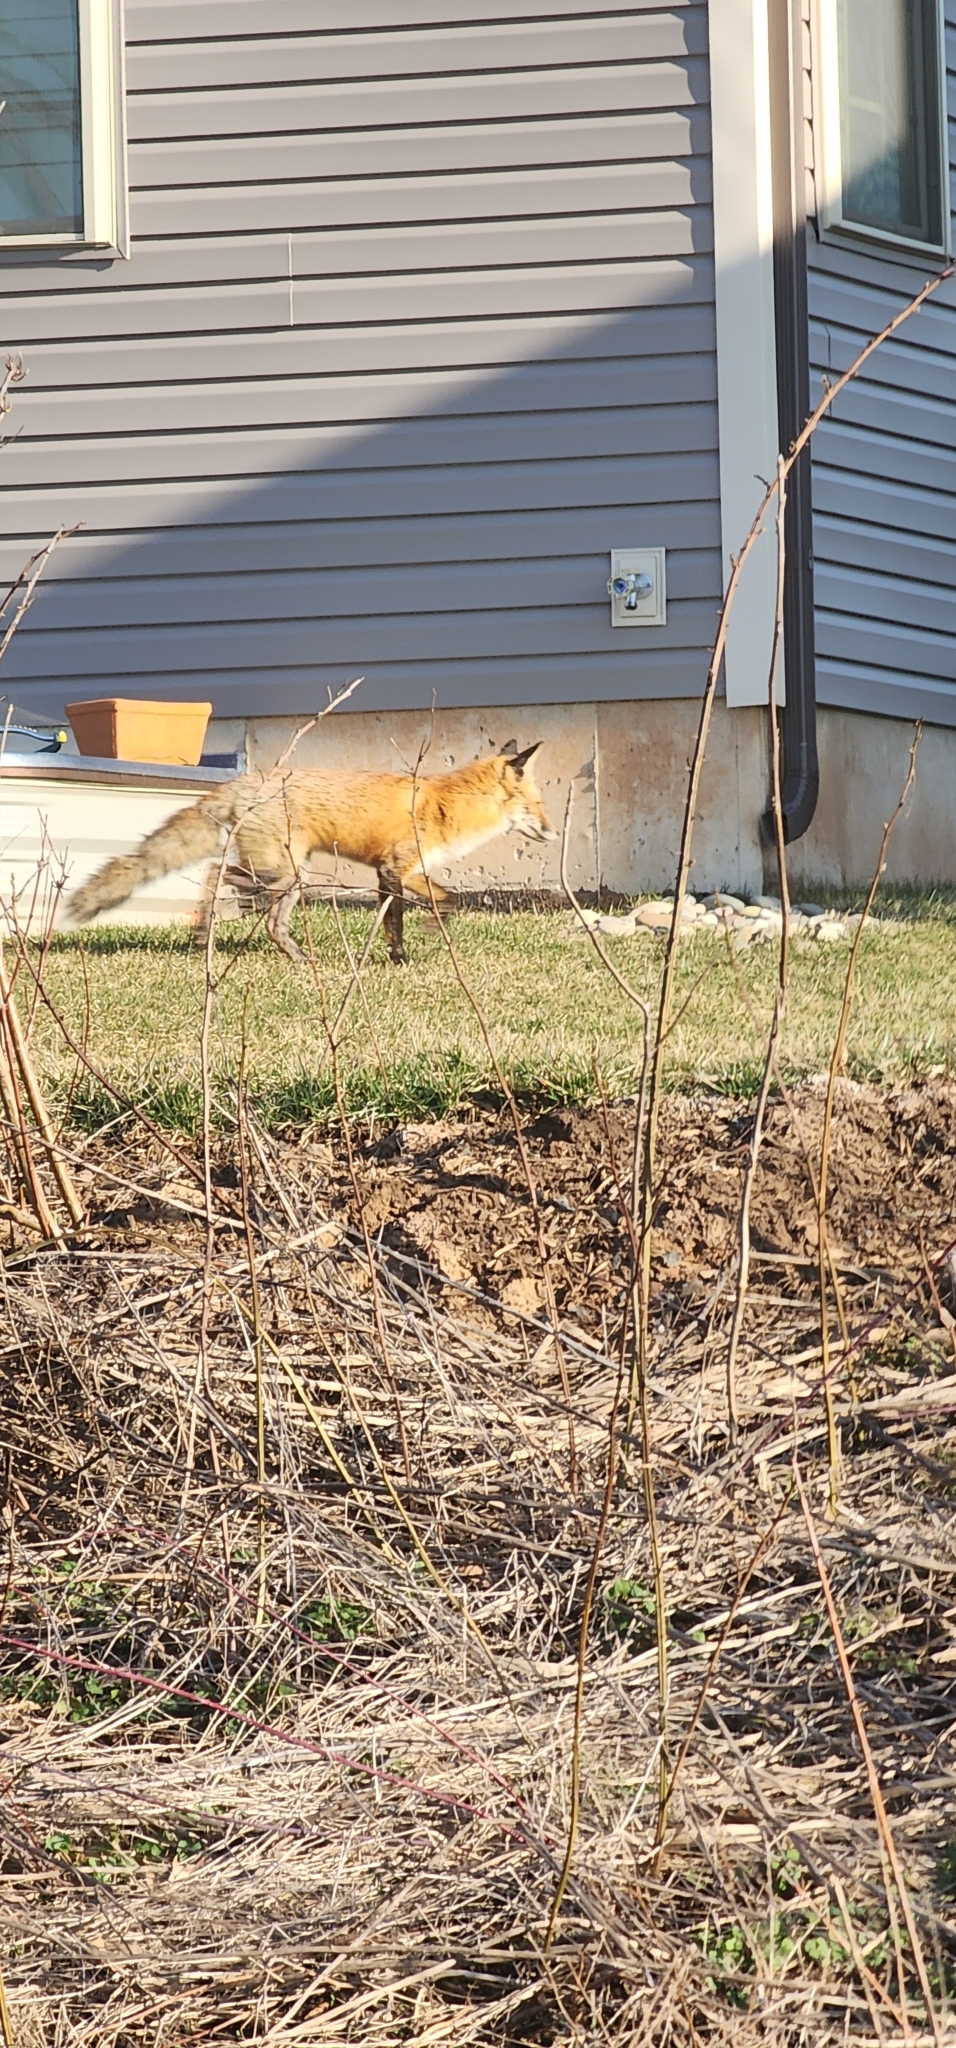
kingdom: Animalia
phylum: Chordata
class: Mammalia
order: Carnivora
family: Canidae
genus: Vulpes
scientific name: Vulpes vulpes
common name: Red fox
